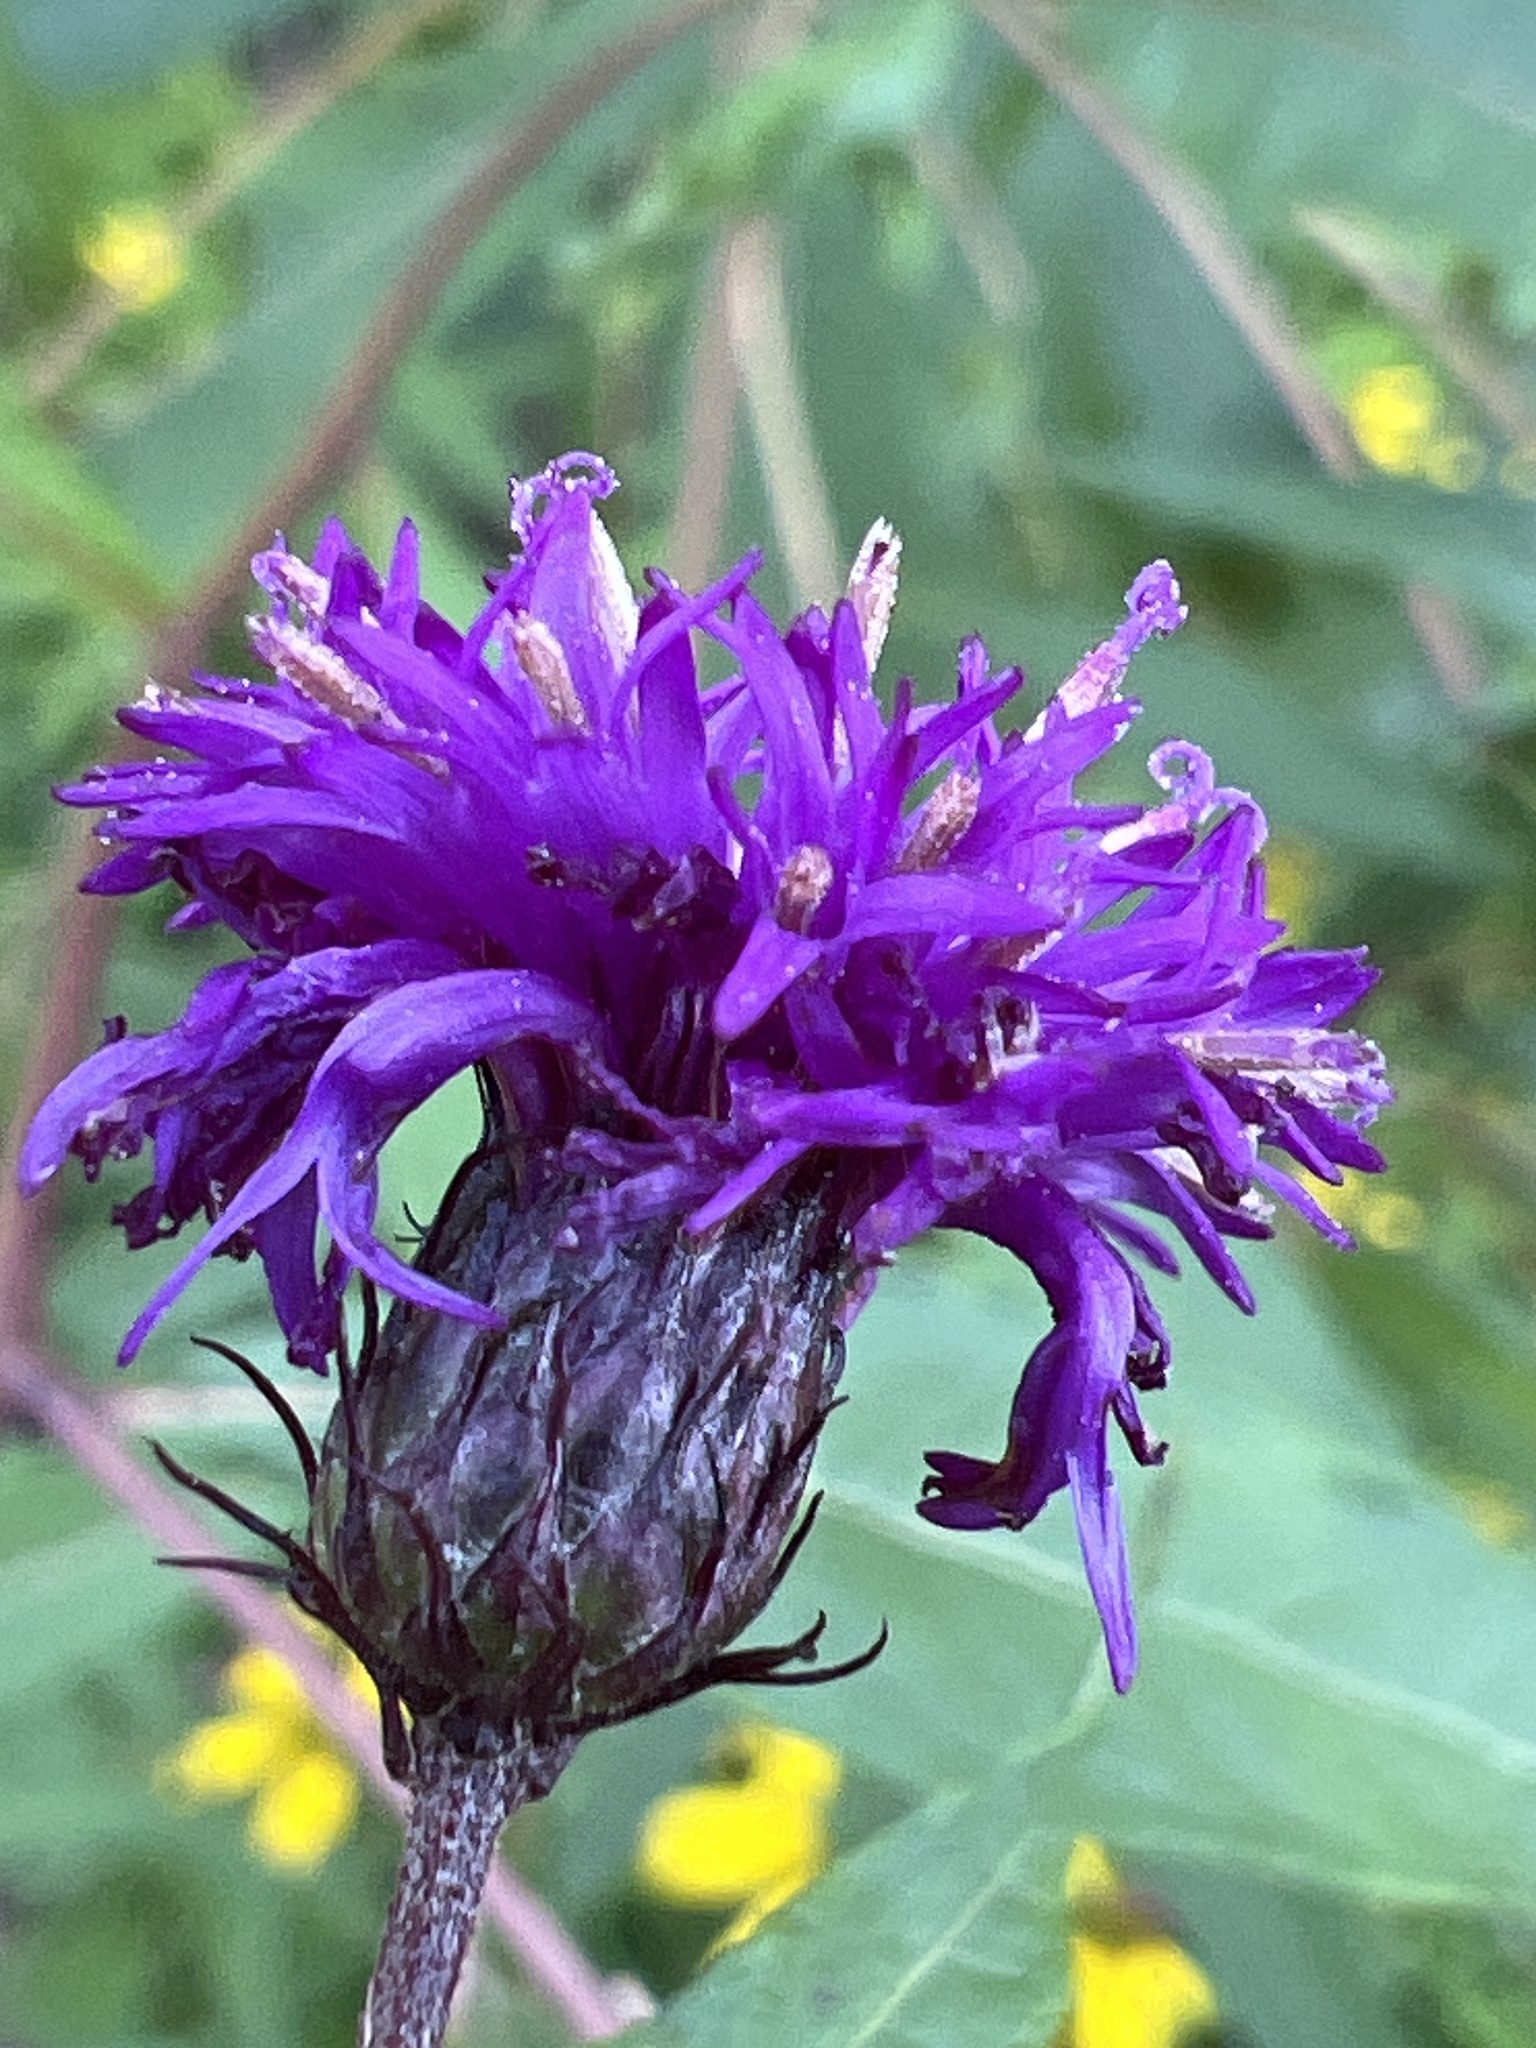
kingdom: Plantae
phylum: Tracheophyta
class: Magnoliopsida
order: Asterales
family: Asteraceae
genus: Vernonia
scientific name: Vernonia noveboracensis
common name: New york ironweed
